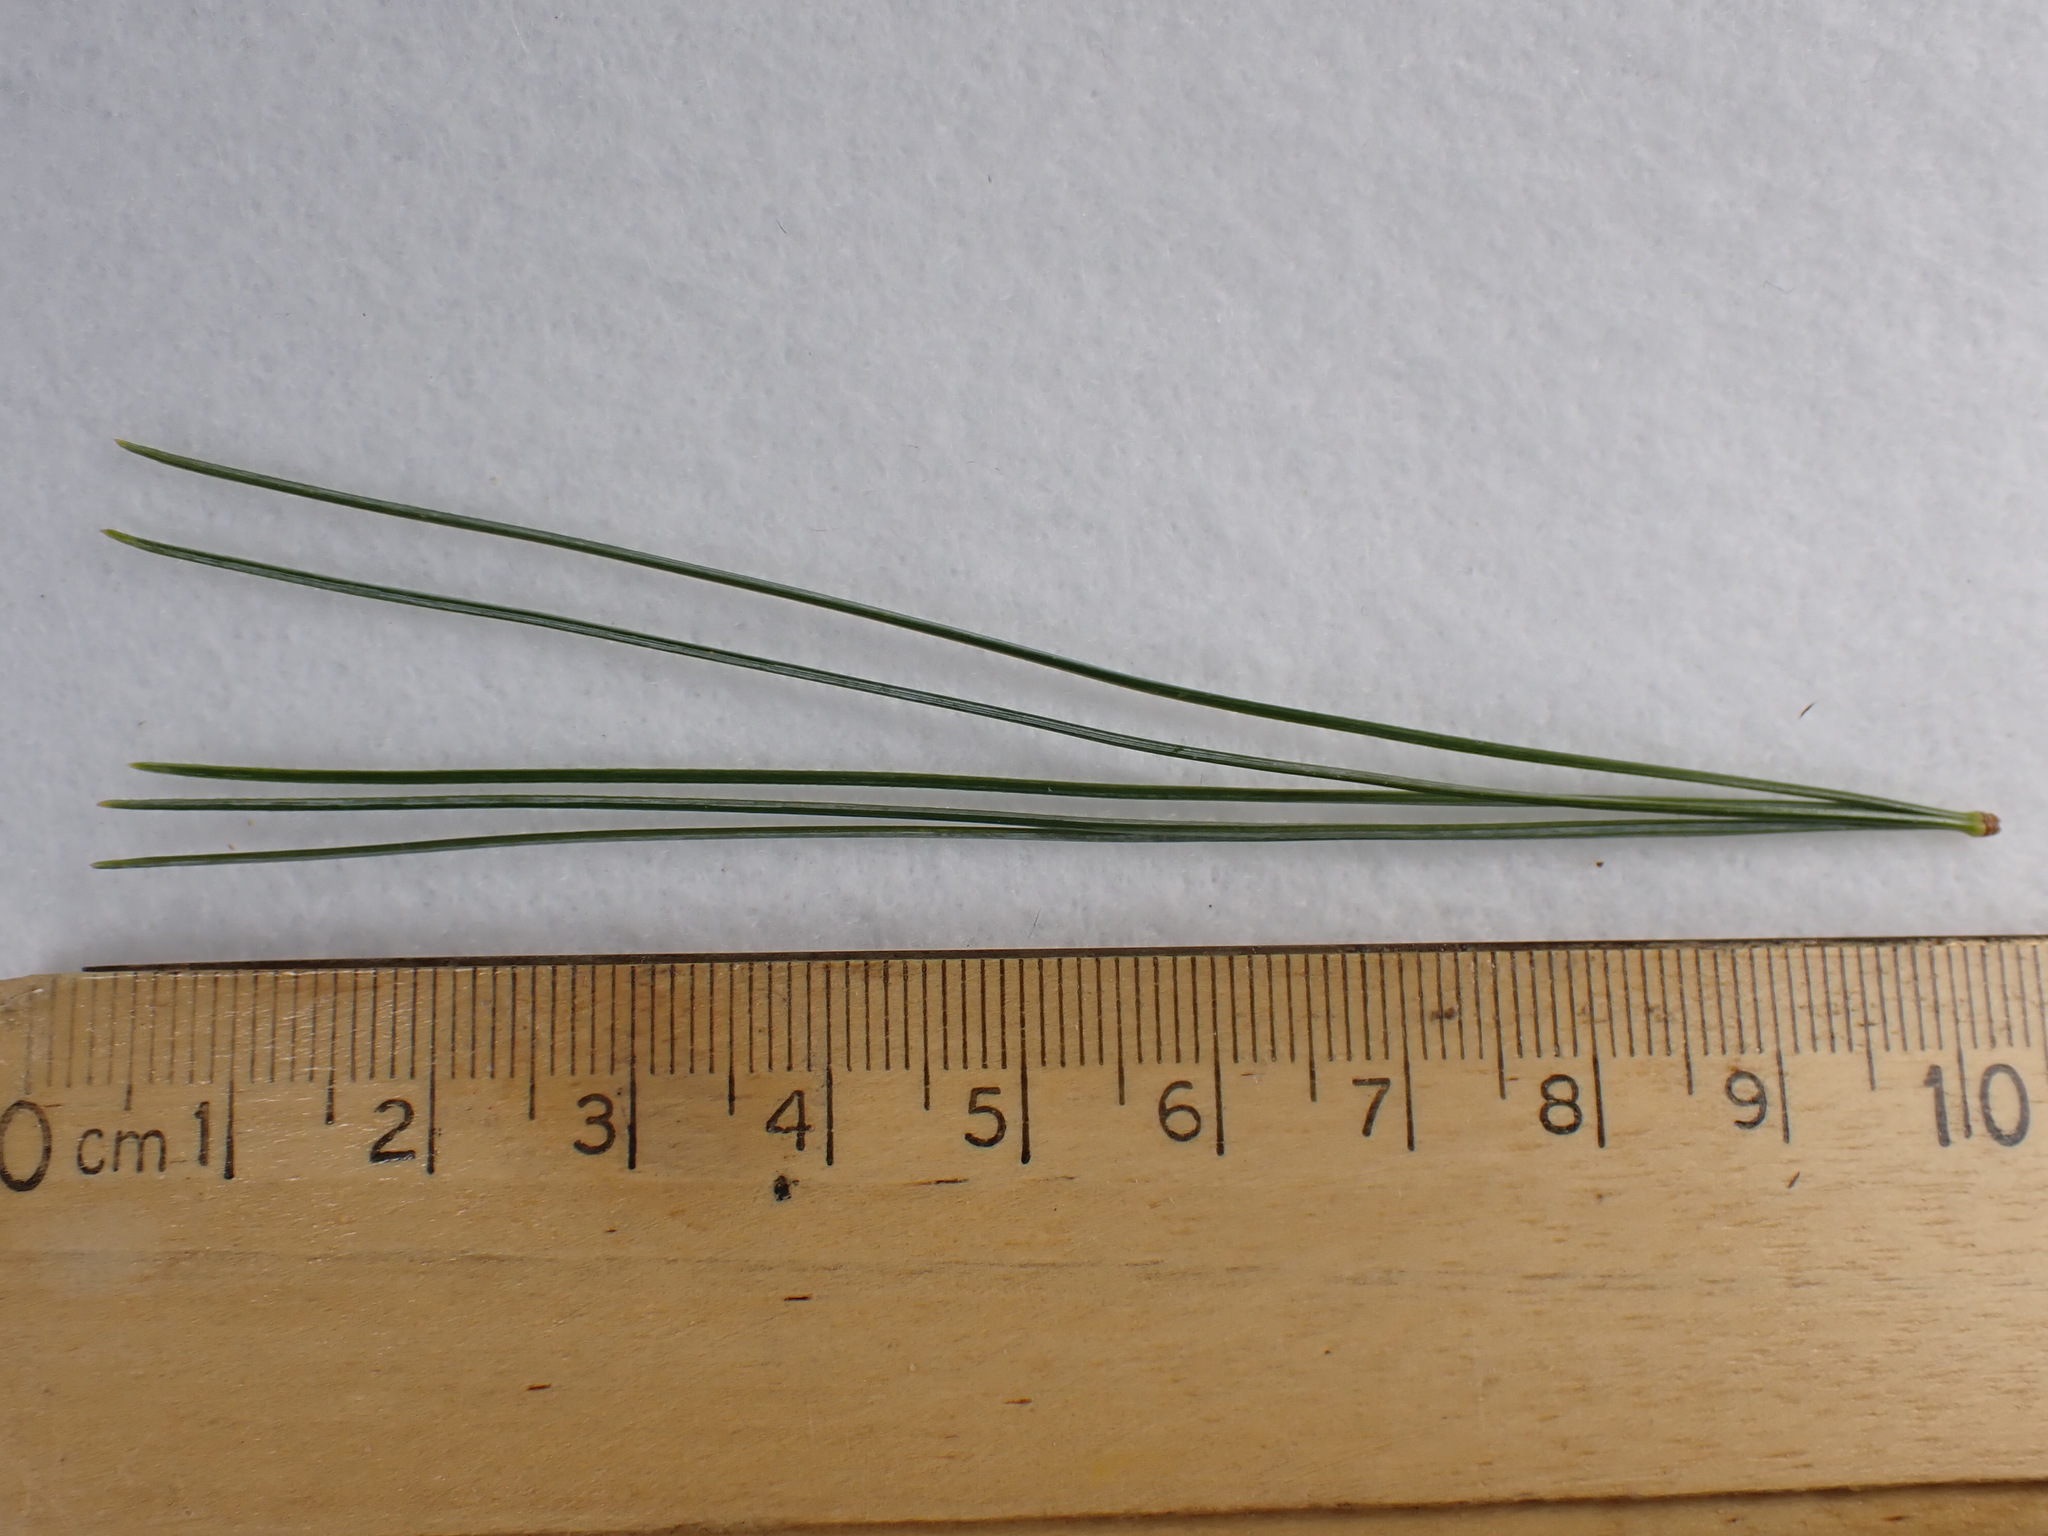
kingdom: Plantae
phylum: Tracheophyta
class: Pinopsida
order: Pinales
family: Pinaceae
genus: Pinus
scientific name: Pinus strobus
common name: Weymouth pine
